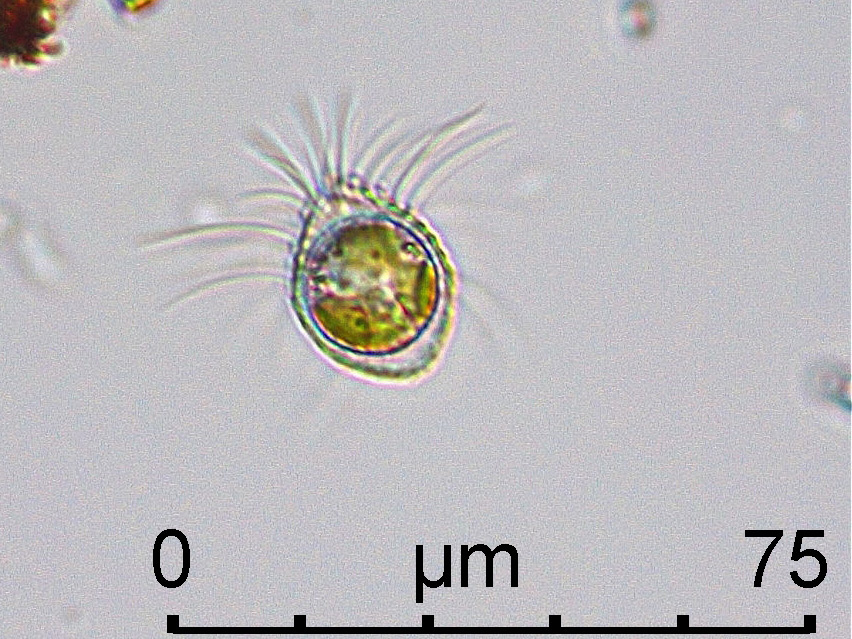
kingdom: Chromista
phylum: Ochrophyta
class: Chrysophyceae
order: Synurales
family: Mallomonadaceae
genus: Mallomonas
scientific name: Mallomonas tonsurata
